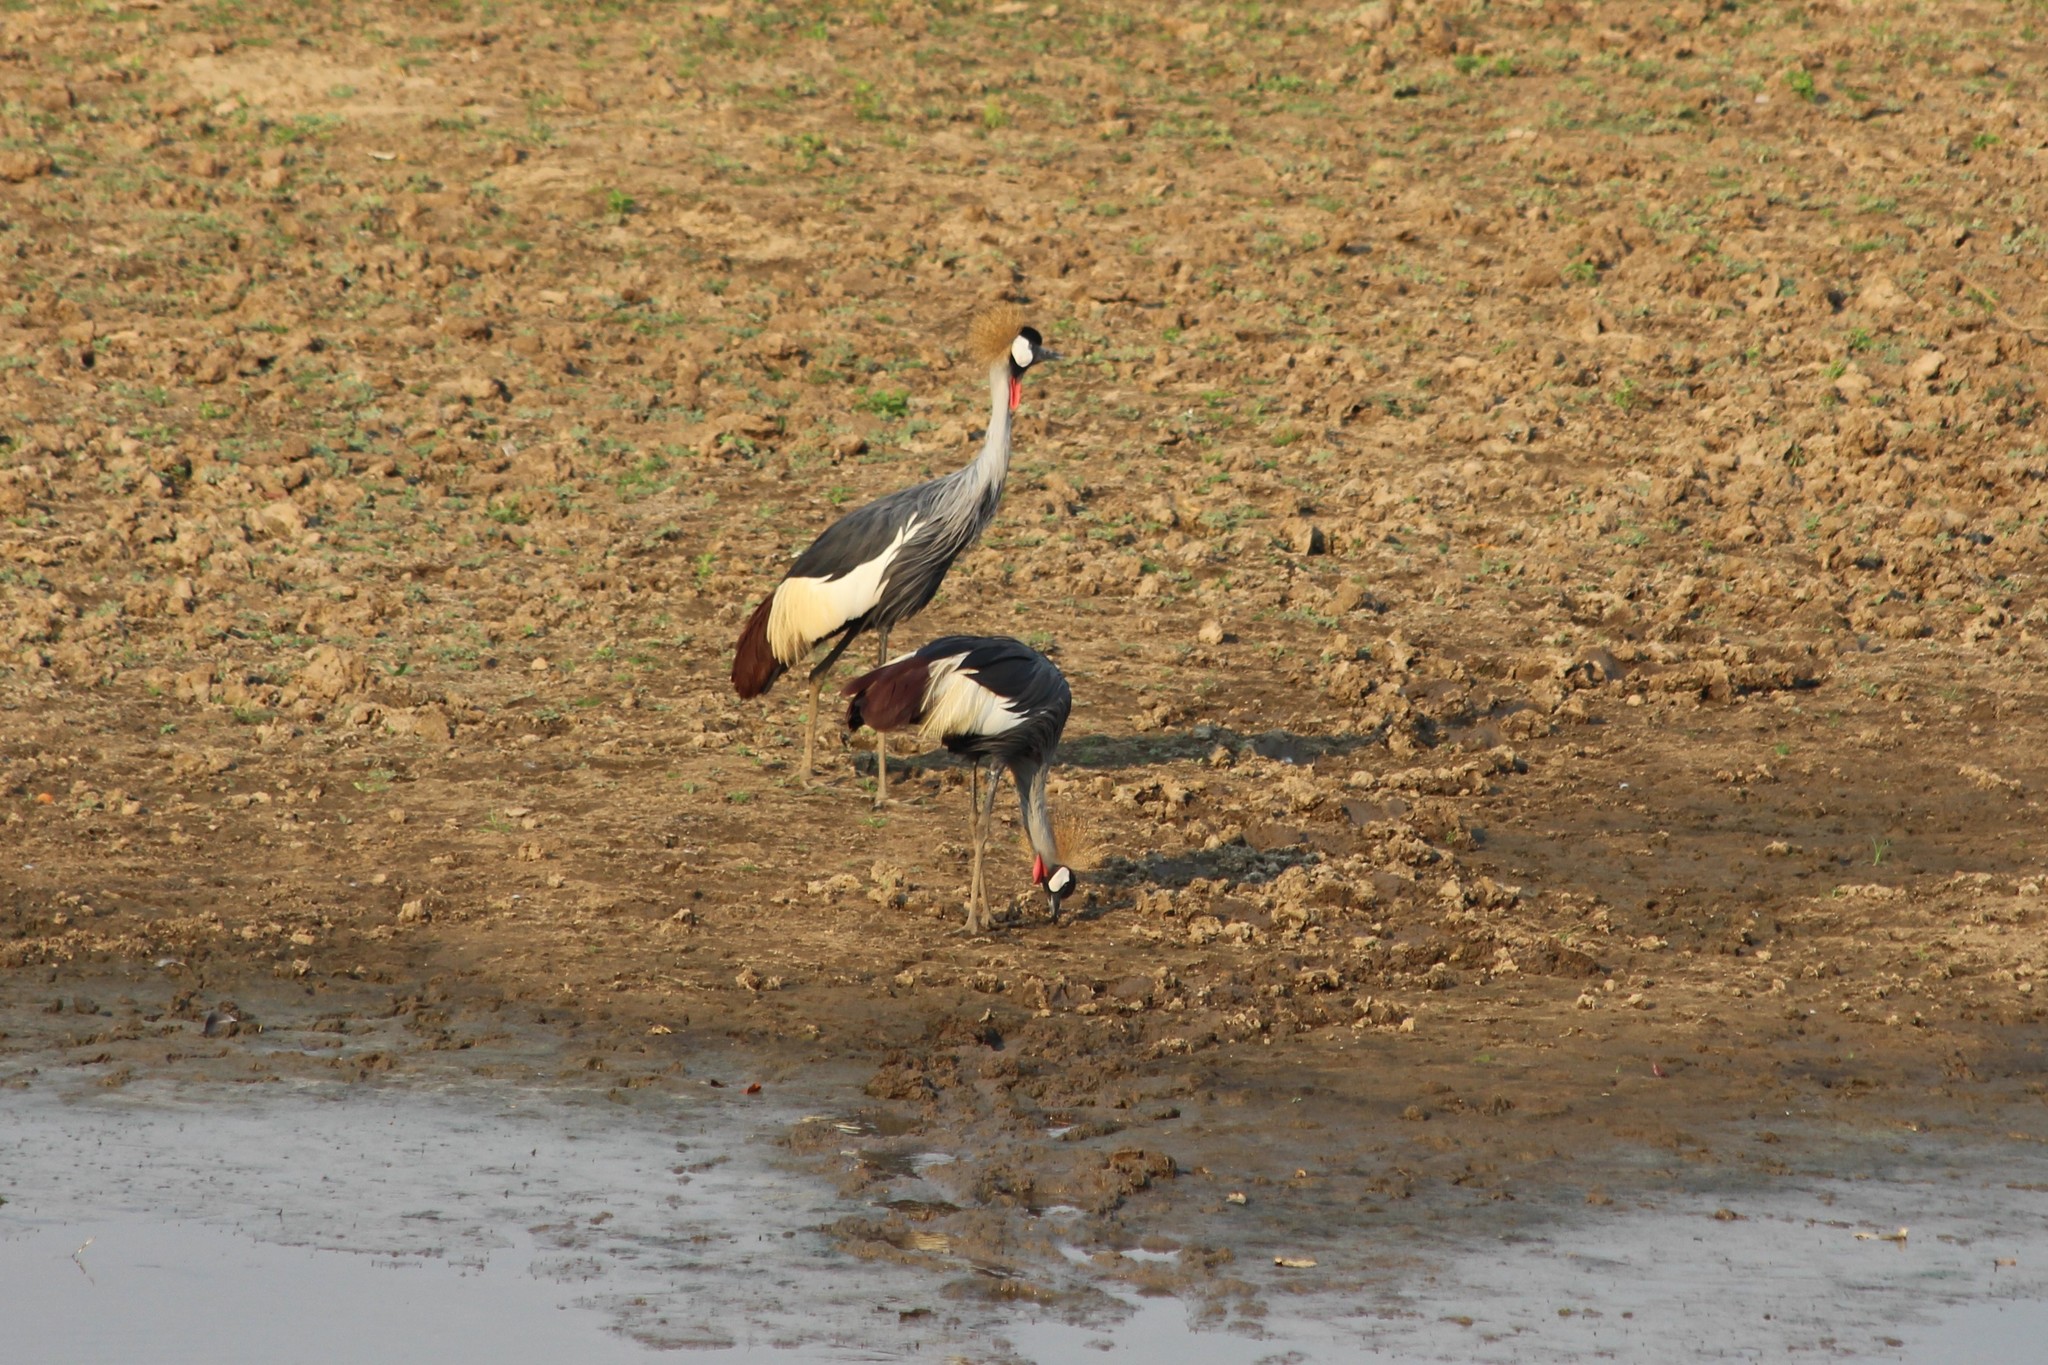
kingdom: Animalia
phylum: Chordata
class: Aves
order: Gruiformes
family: Gruidae
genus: Balearica
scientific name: Balearica regulorum
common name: Grey crowned crane
